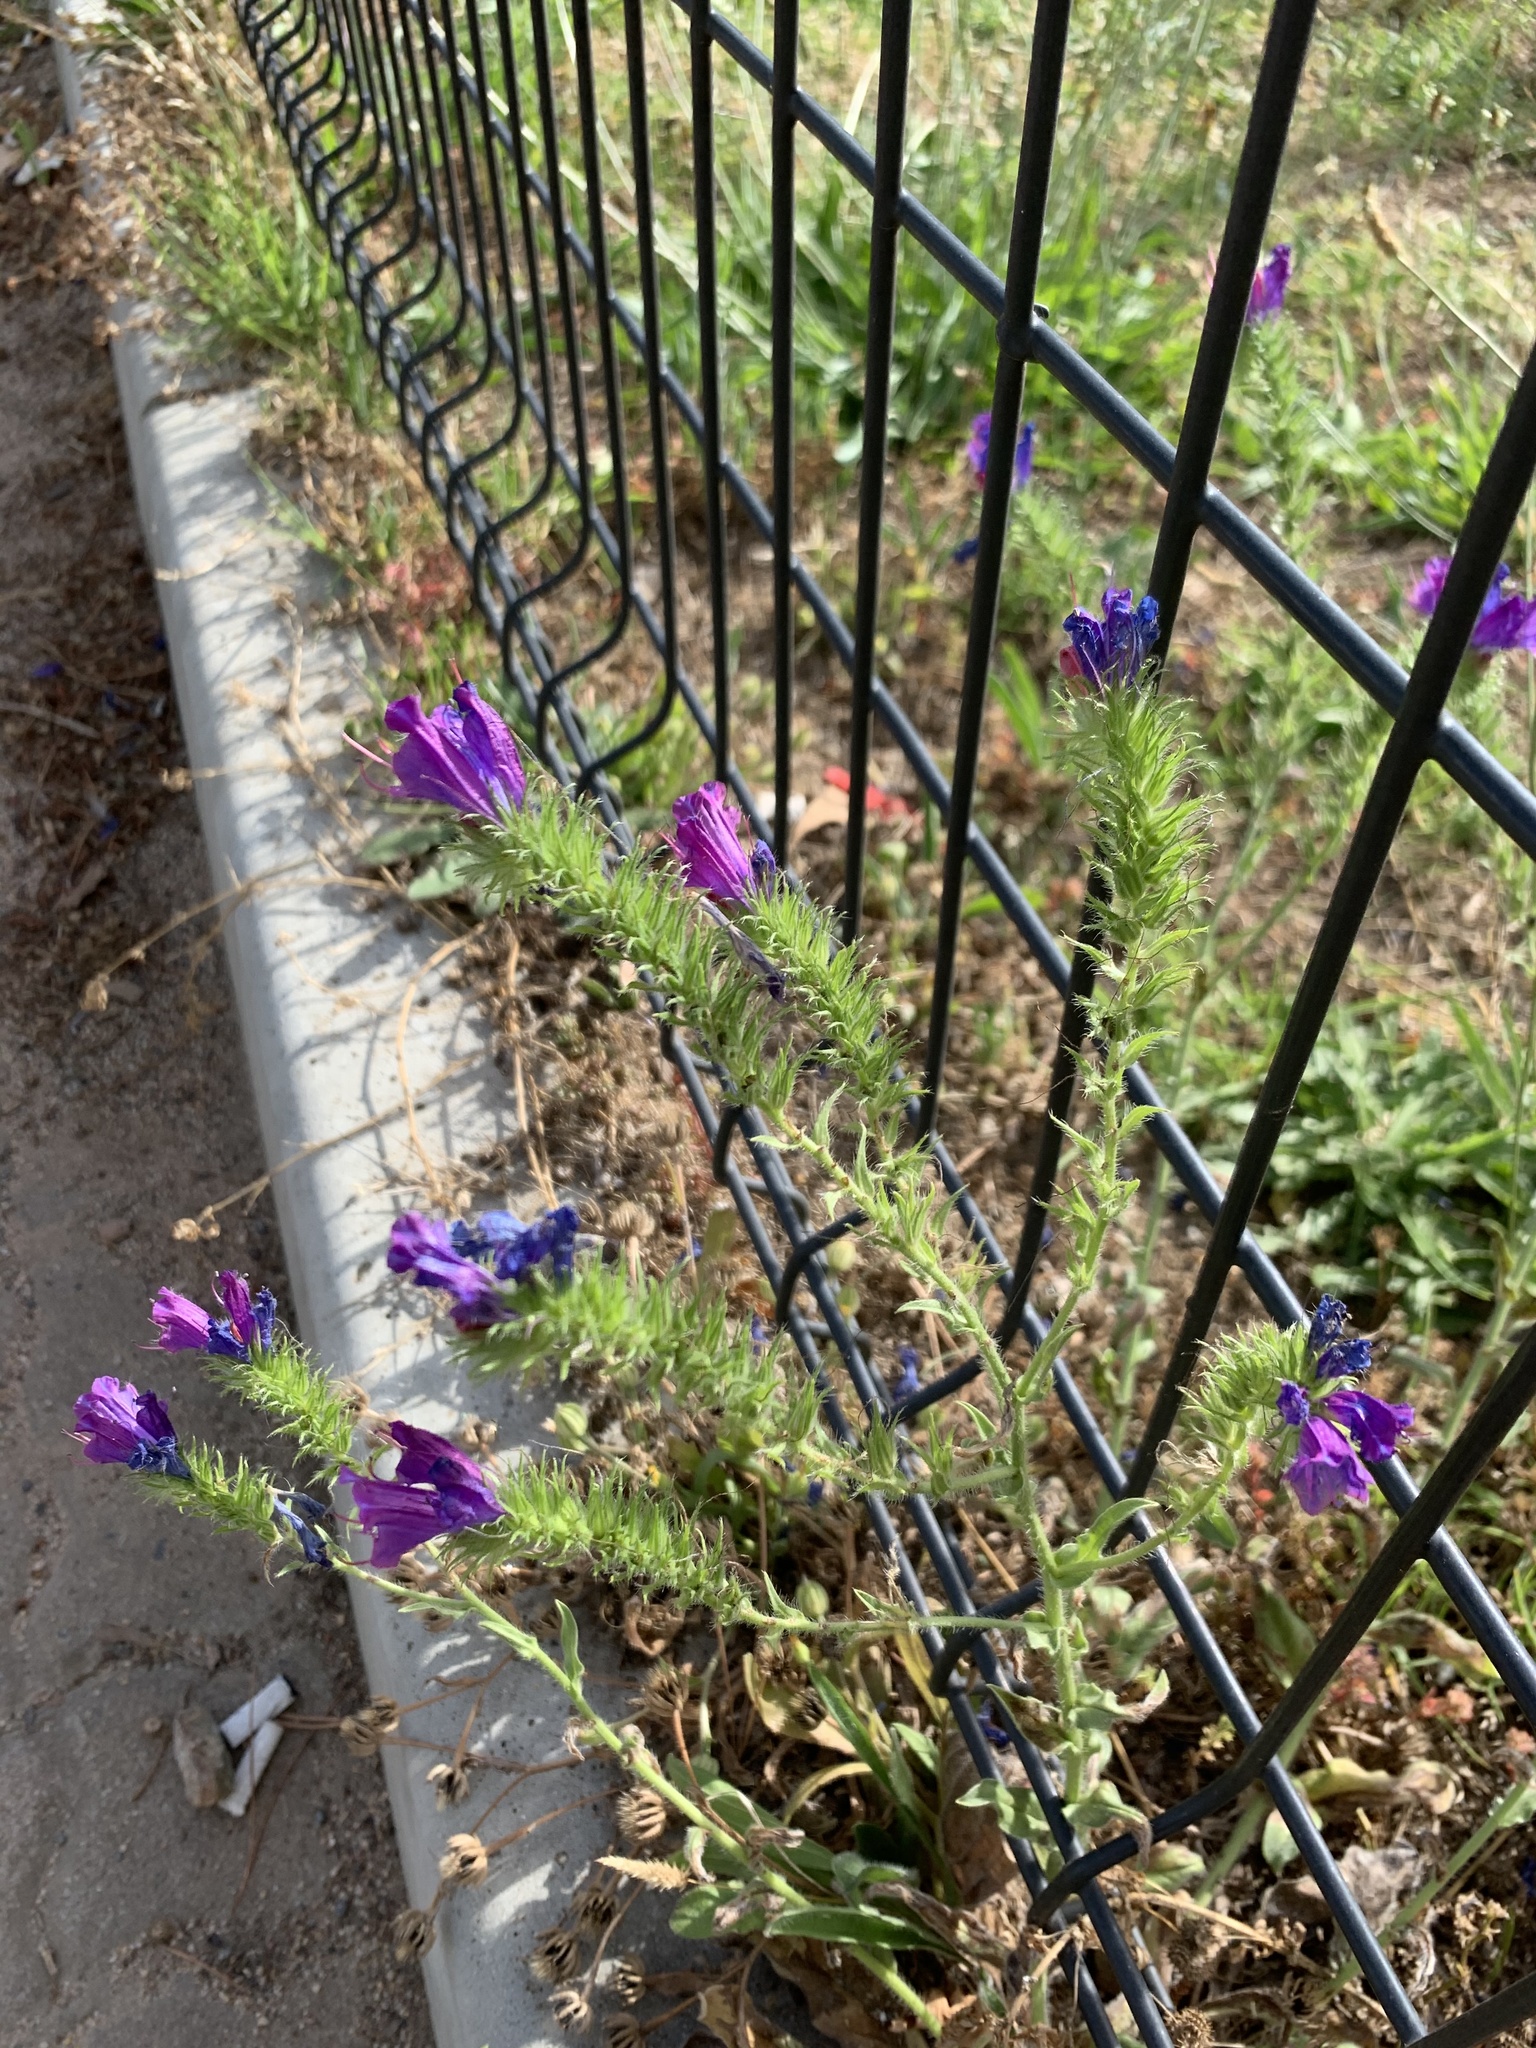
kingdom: Plantae
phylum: Tracheophyta
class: Magnoliopsida
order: Boraginales
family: Boraginaceae
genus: Echium
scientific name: Echium plantagineum
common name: Purple viper's-bugloss
